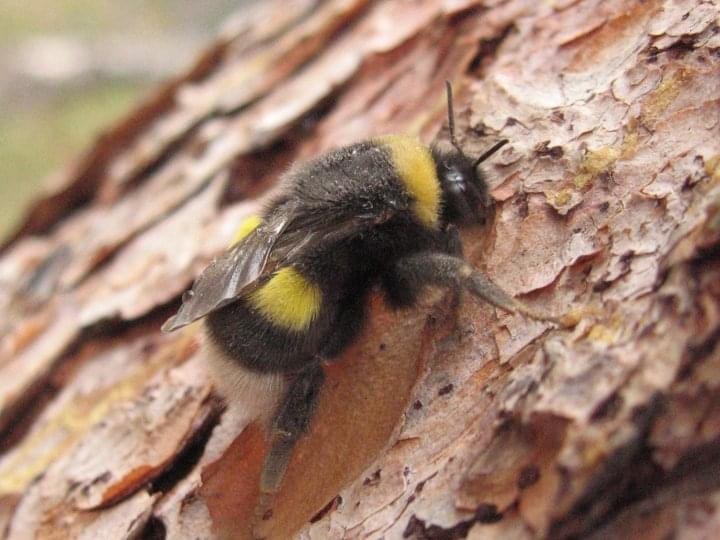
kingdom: Animalia
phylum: Arthropoda
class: Insecta
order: Hymenoptera
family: Apidae
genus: Bombus
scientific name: Bombus cryptarum
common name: Cryptic bumblebee
